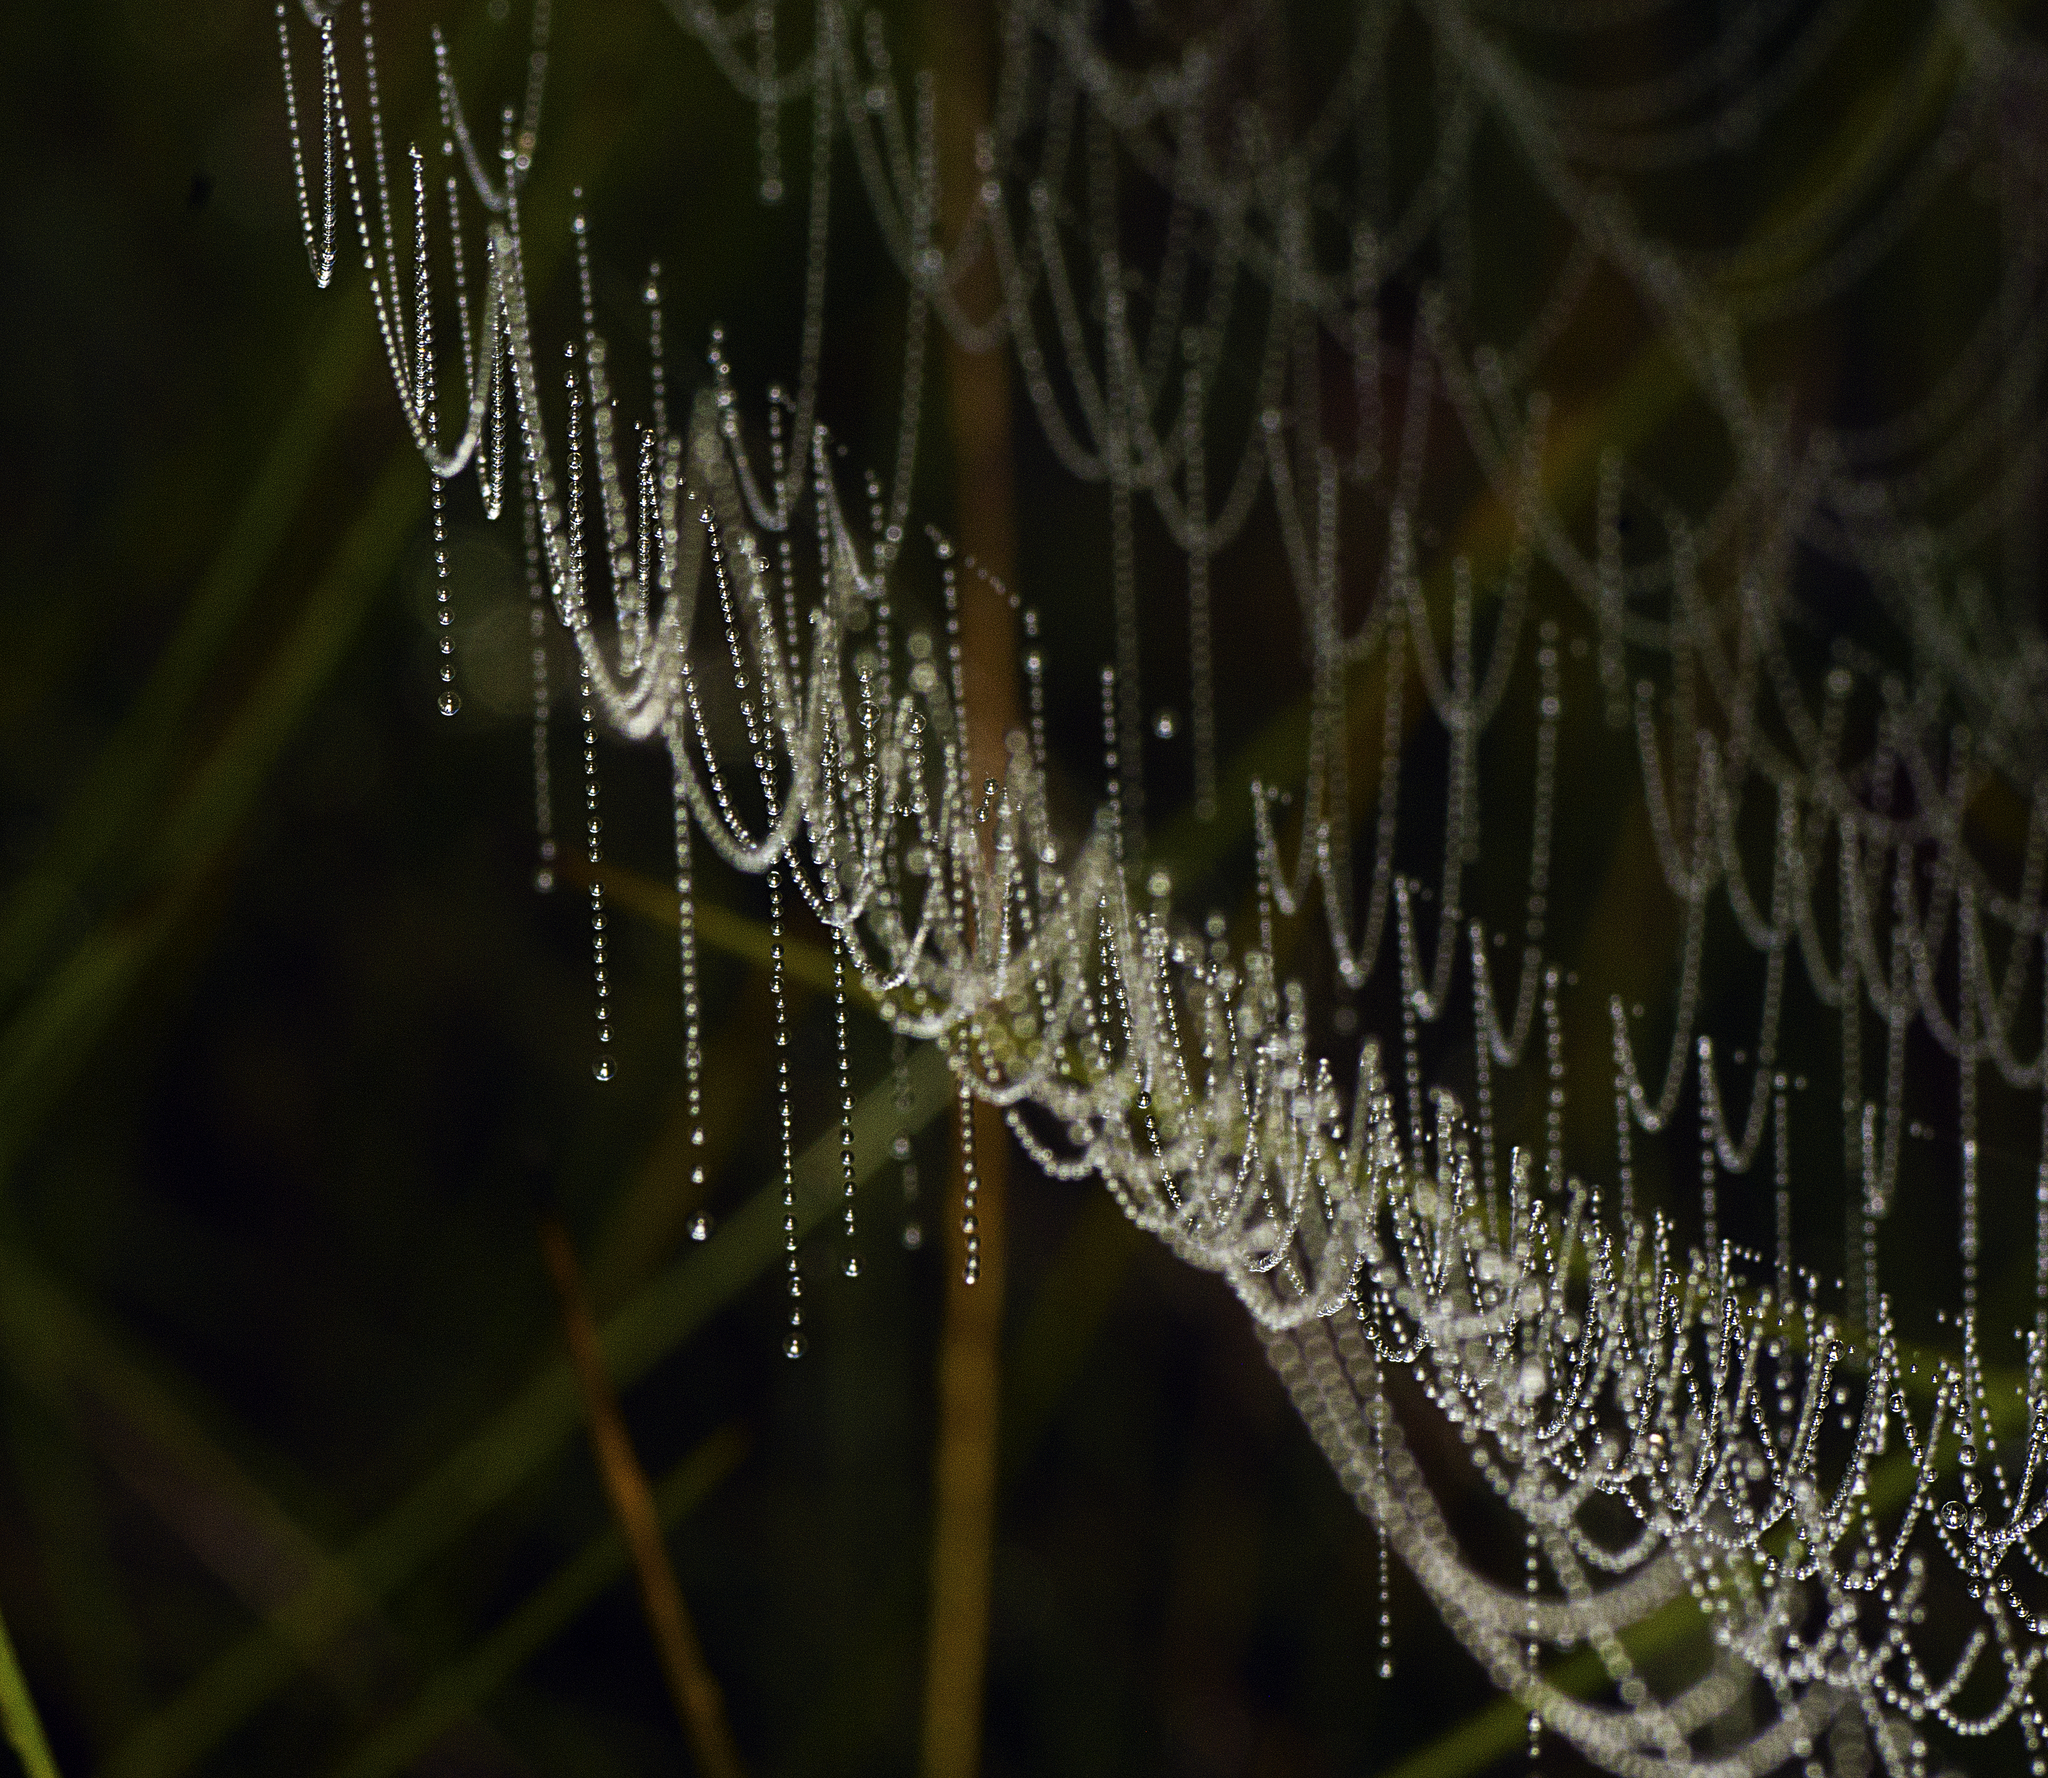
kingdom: Animalia
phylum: Arthropoda
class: Arachnida
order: Araneae
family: Tetragnathidae
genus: Leucauge
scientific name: Leucauge dromedaria
